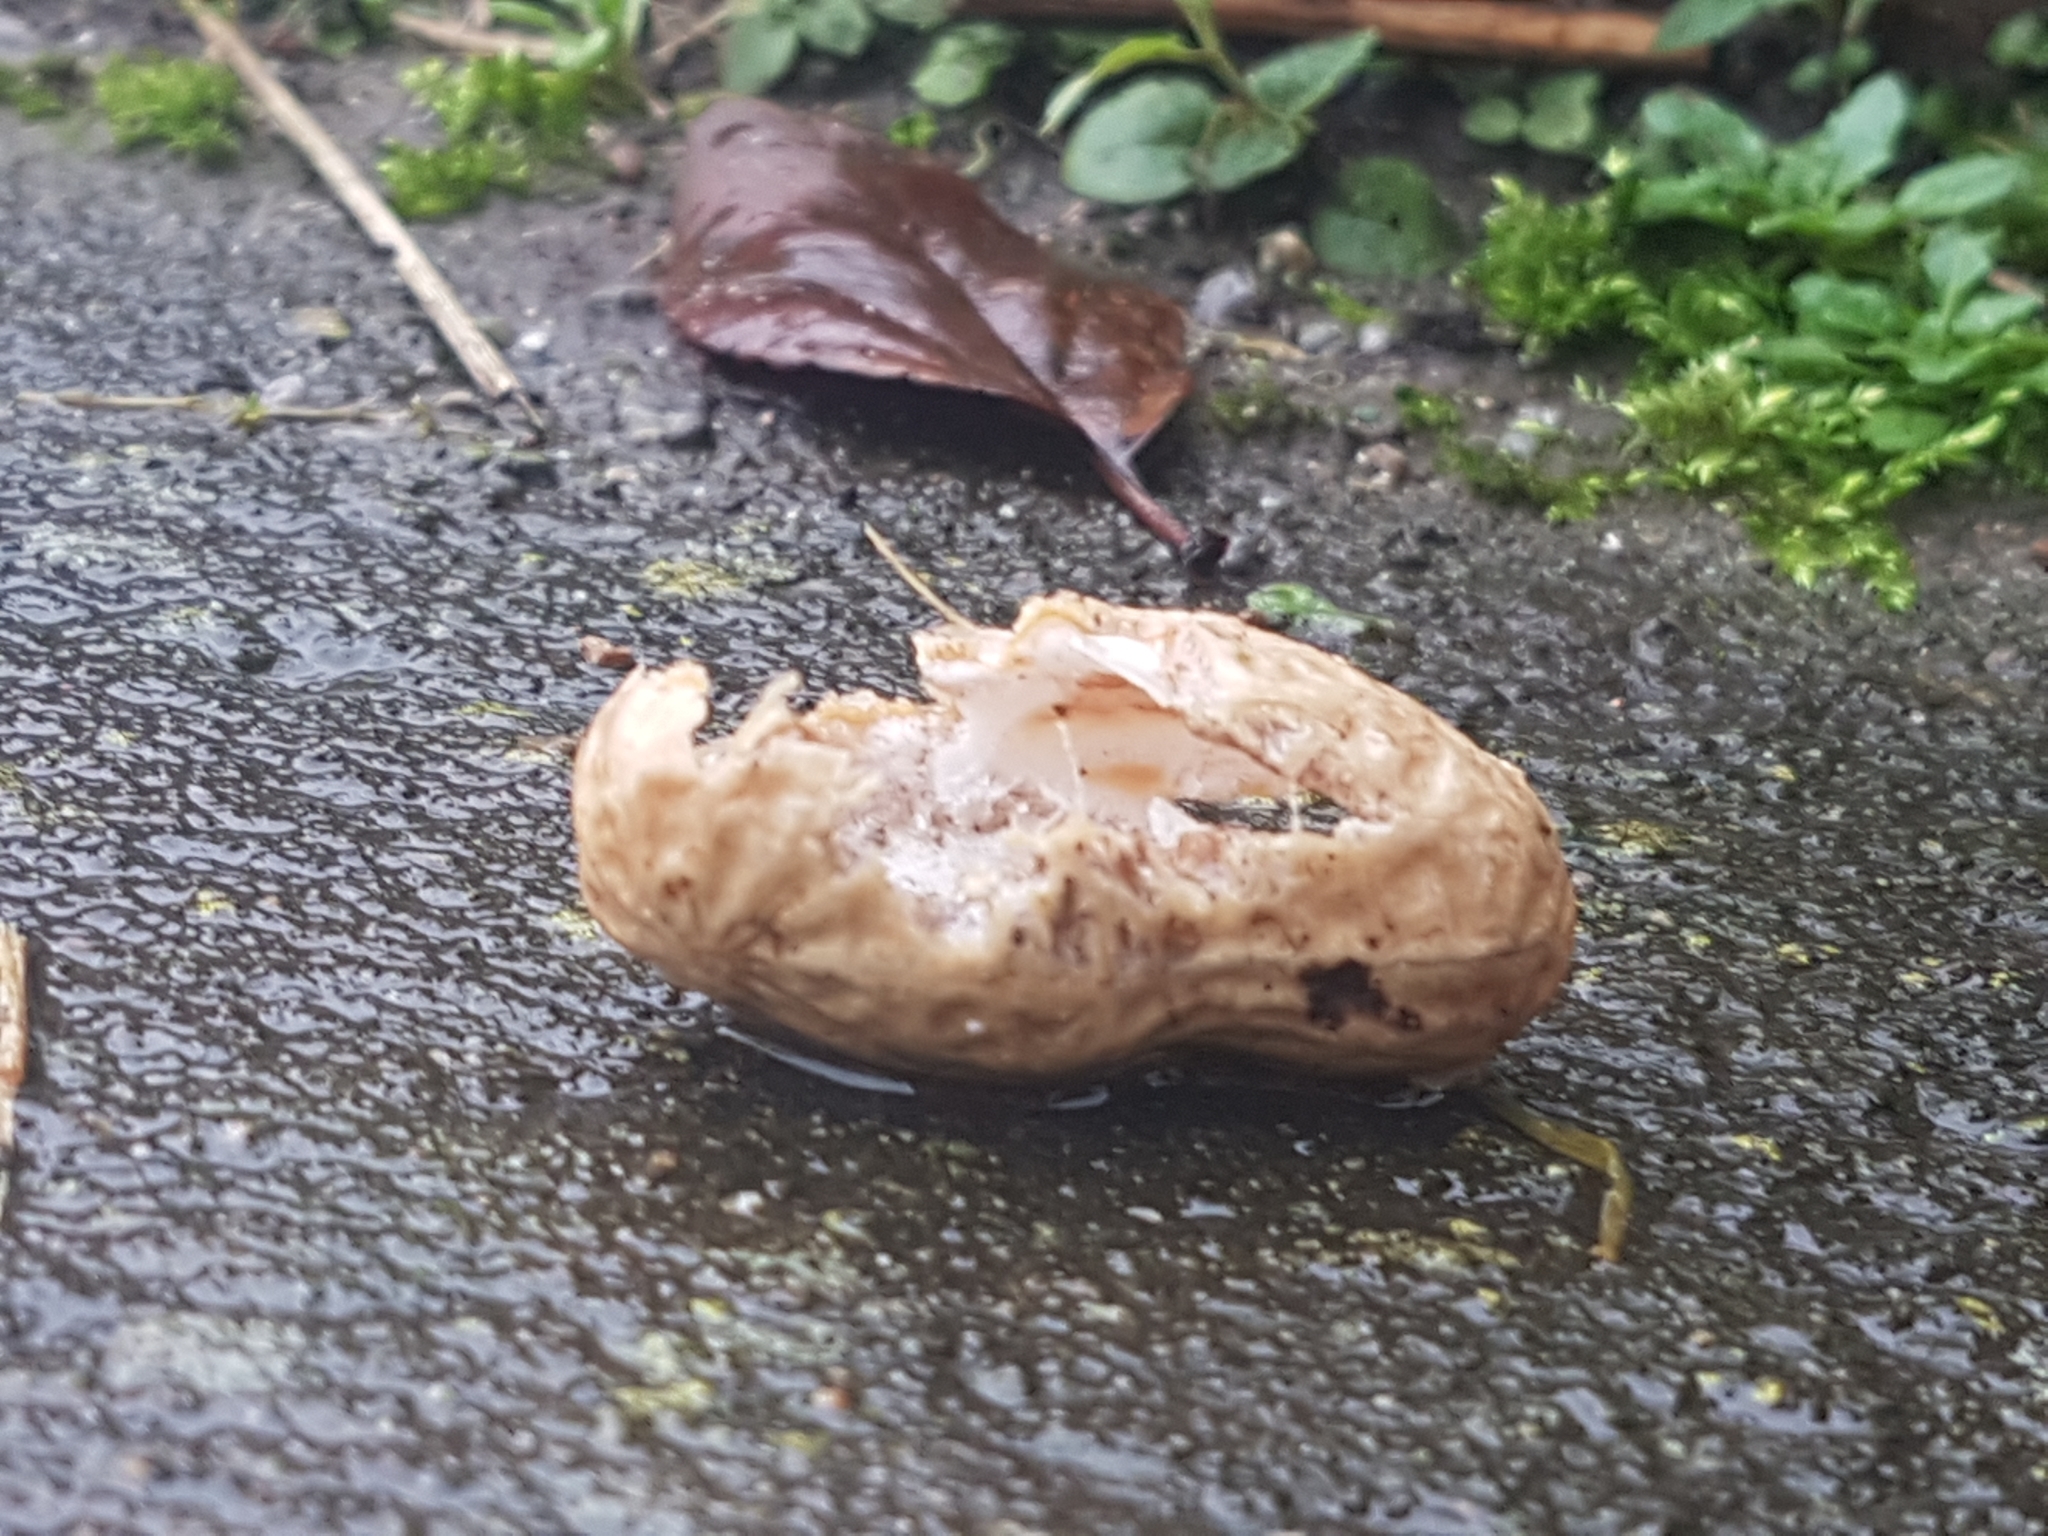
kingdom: Animalia
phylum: Chordata
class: Aves
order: Passeriformes
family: Corvidae
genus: Corvus
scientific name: Corvus brachyrhynchos
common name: American crow
